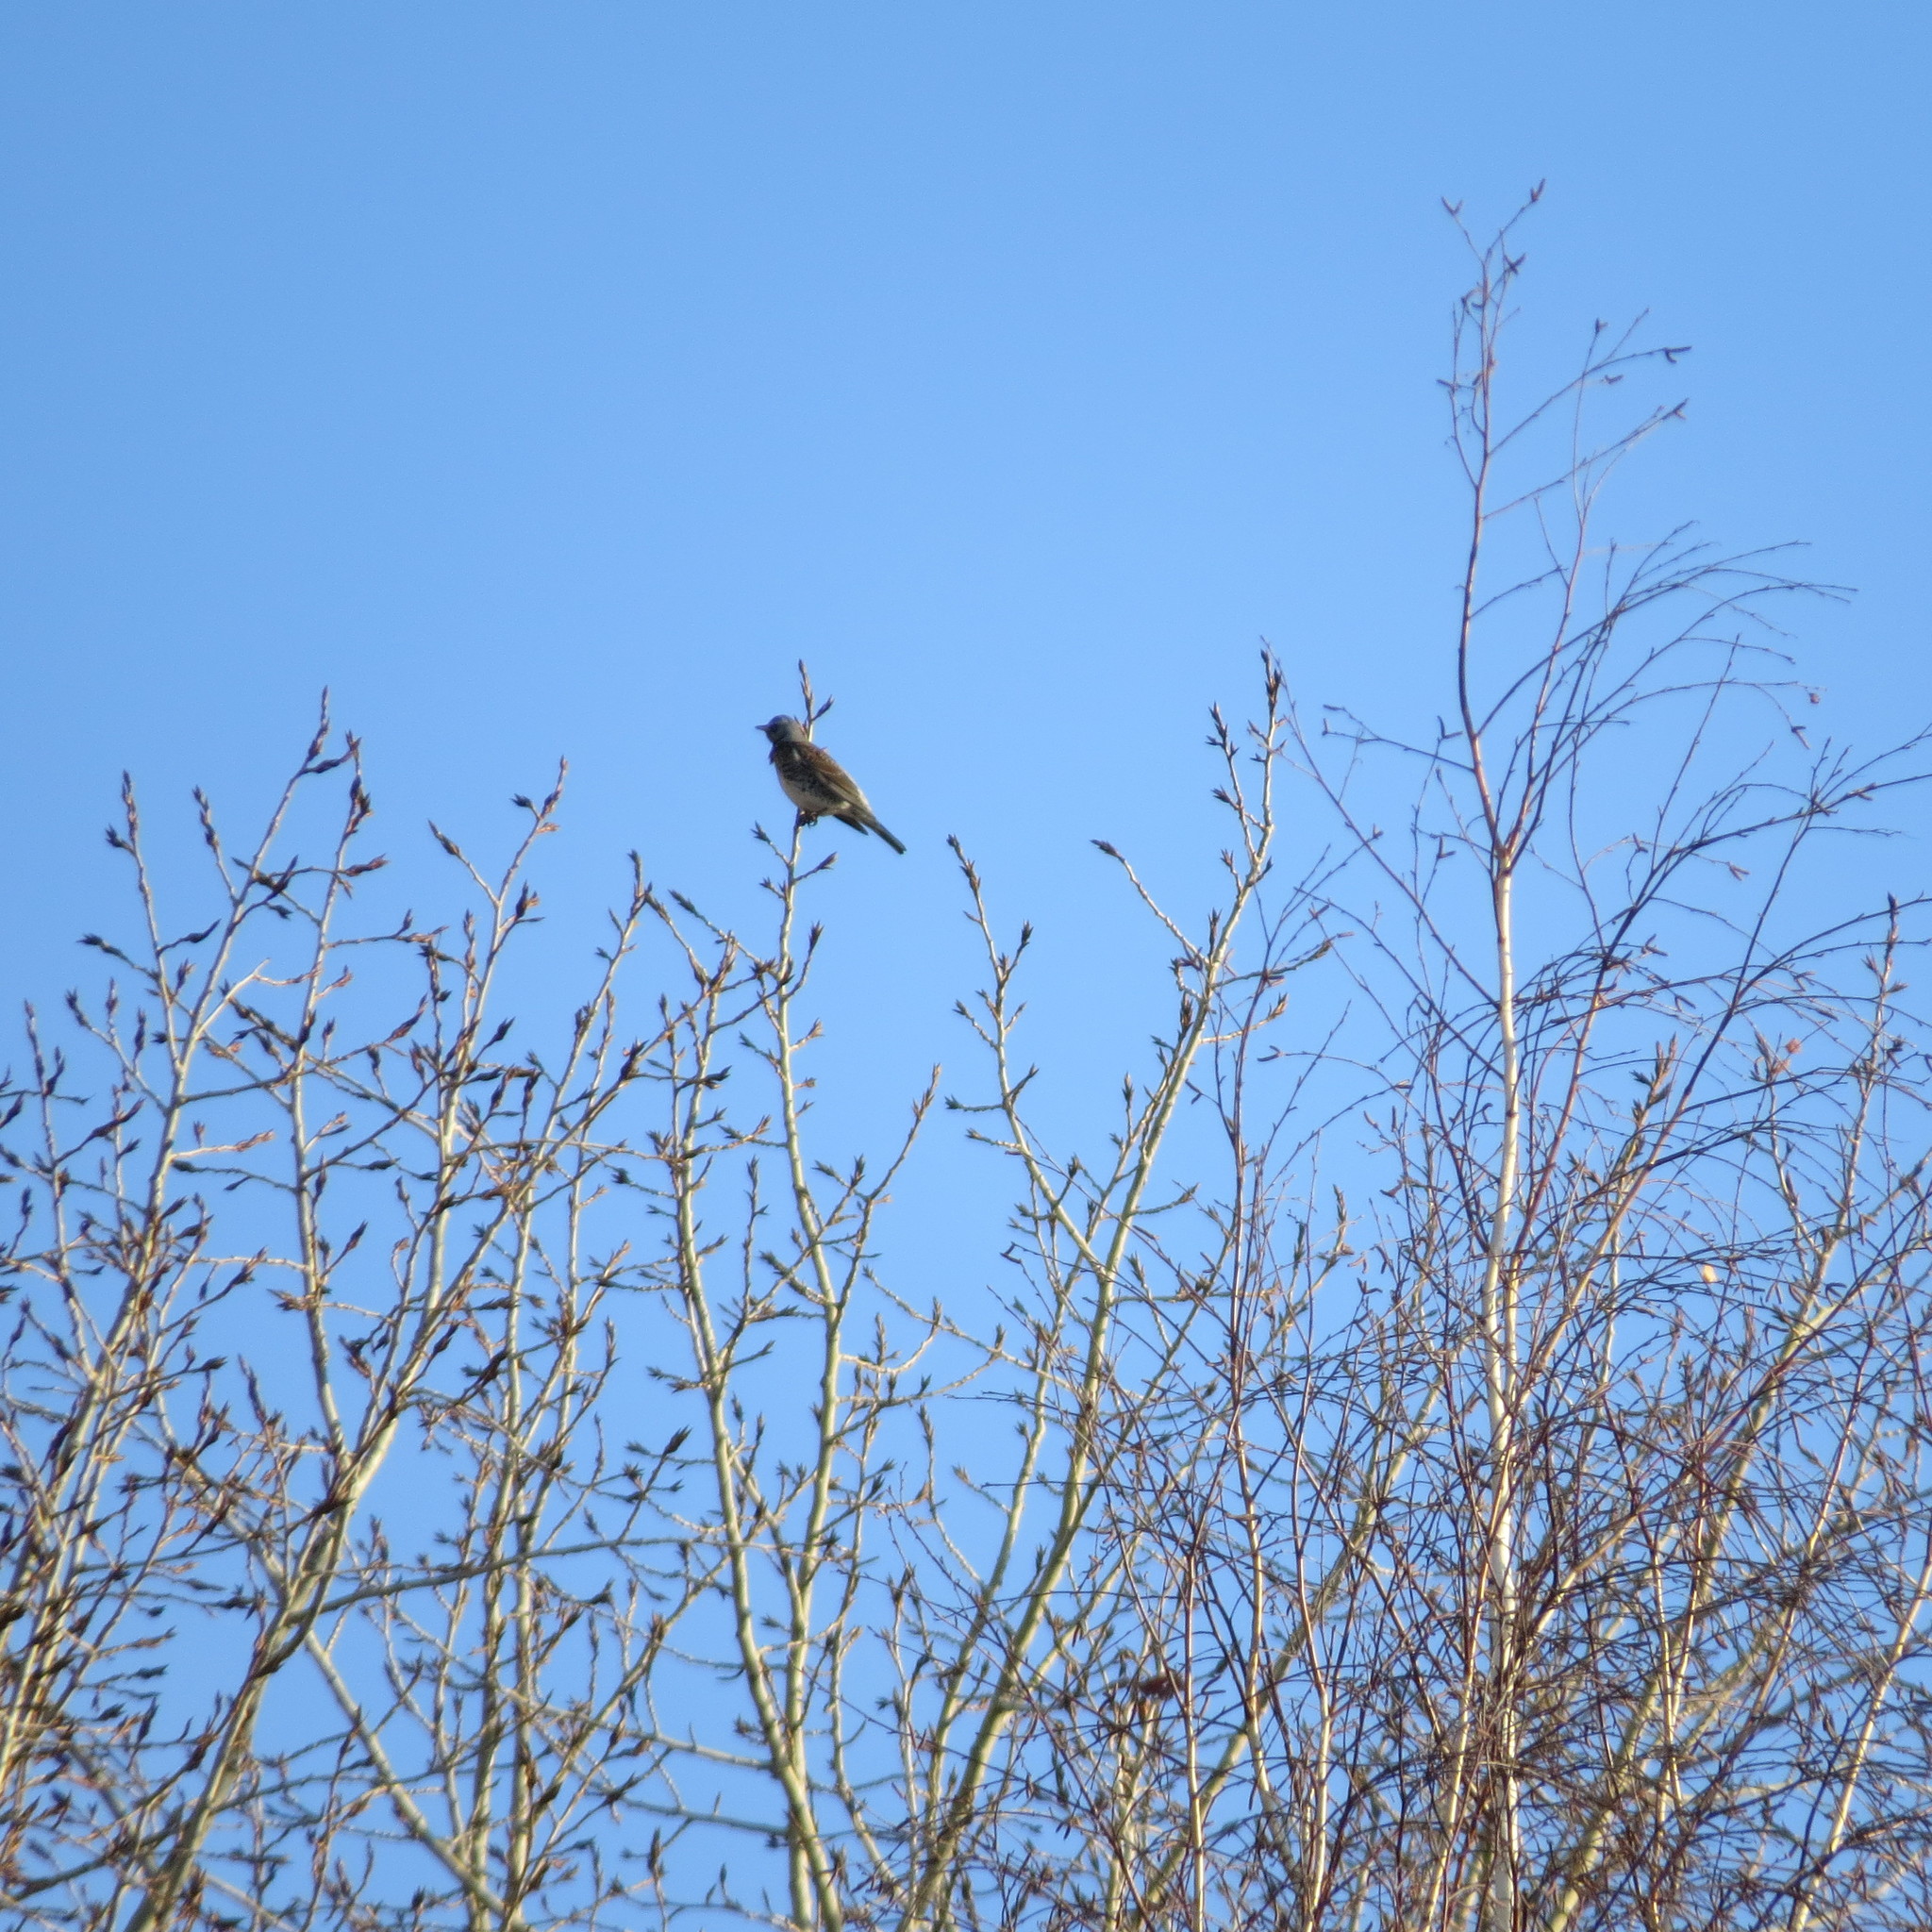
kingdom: Animalia
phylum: Chordata
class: Aves
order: Passeriformes
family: Turdidae
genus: Turdus
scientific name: Turdus pilaris
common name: Fieldfare
